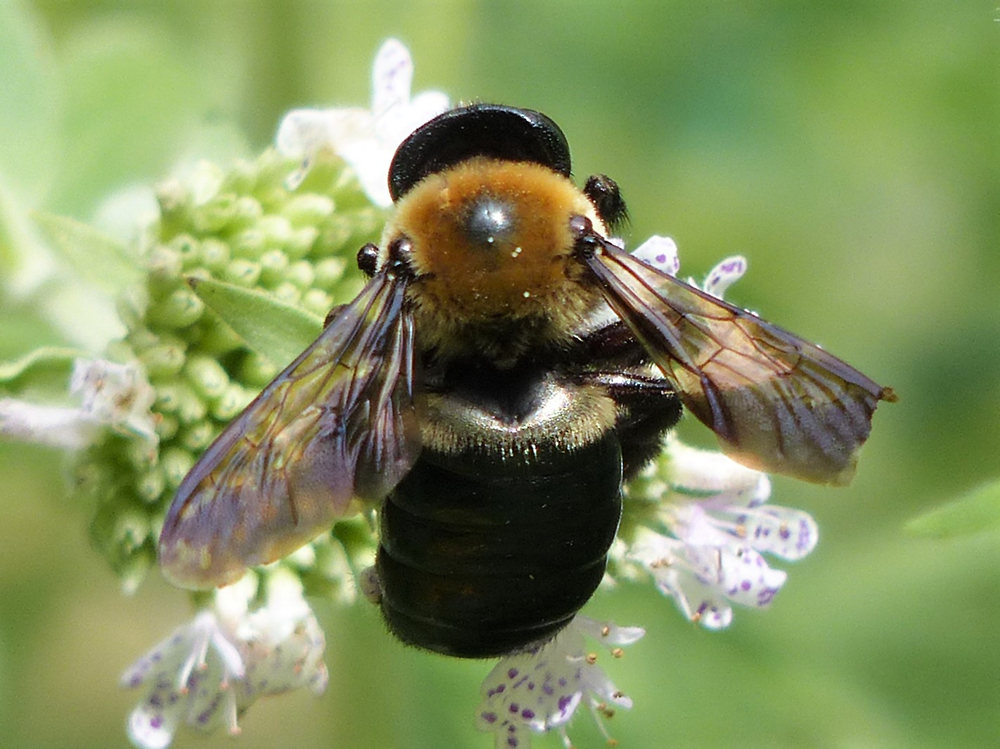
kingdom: Animalia
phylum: Arthropoda
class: Insecta
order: Hymenoptera
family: Apidae
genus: Xylocopa
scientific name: Xylocopa virginica
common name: Carpenter bee
